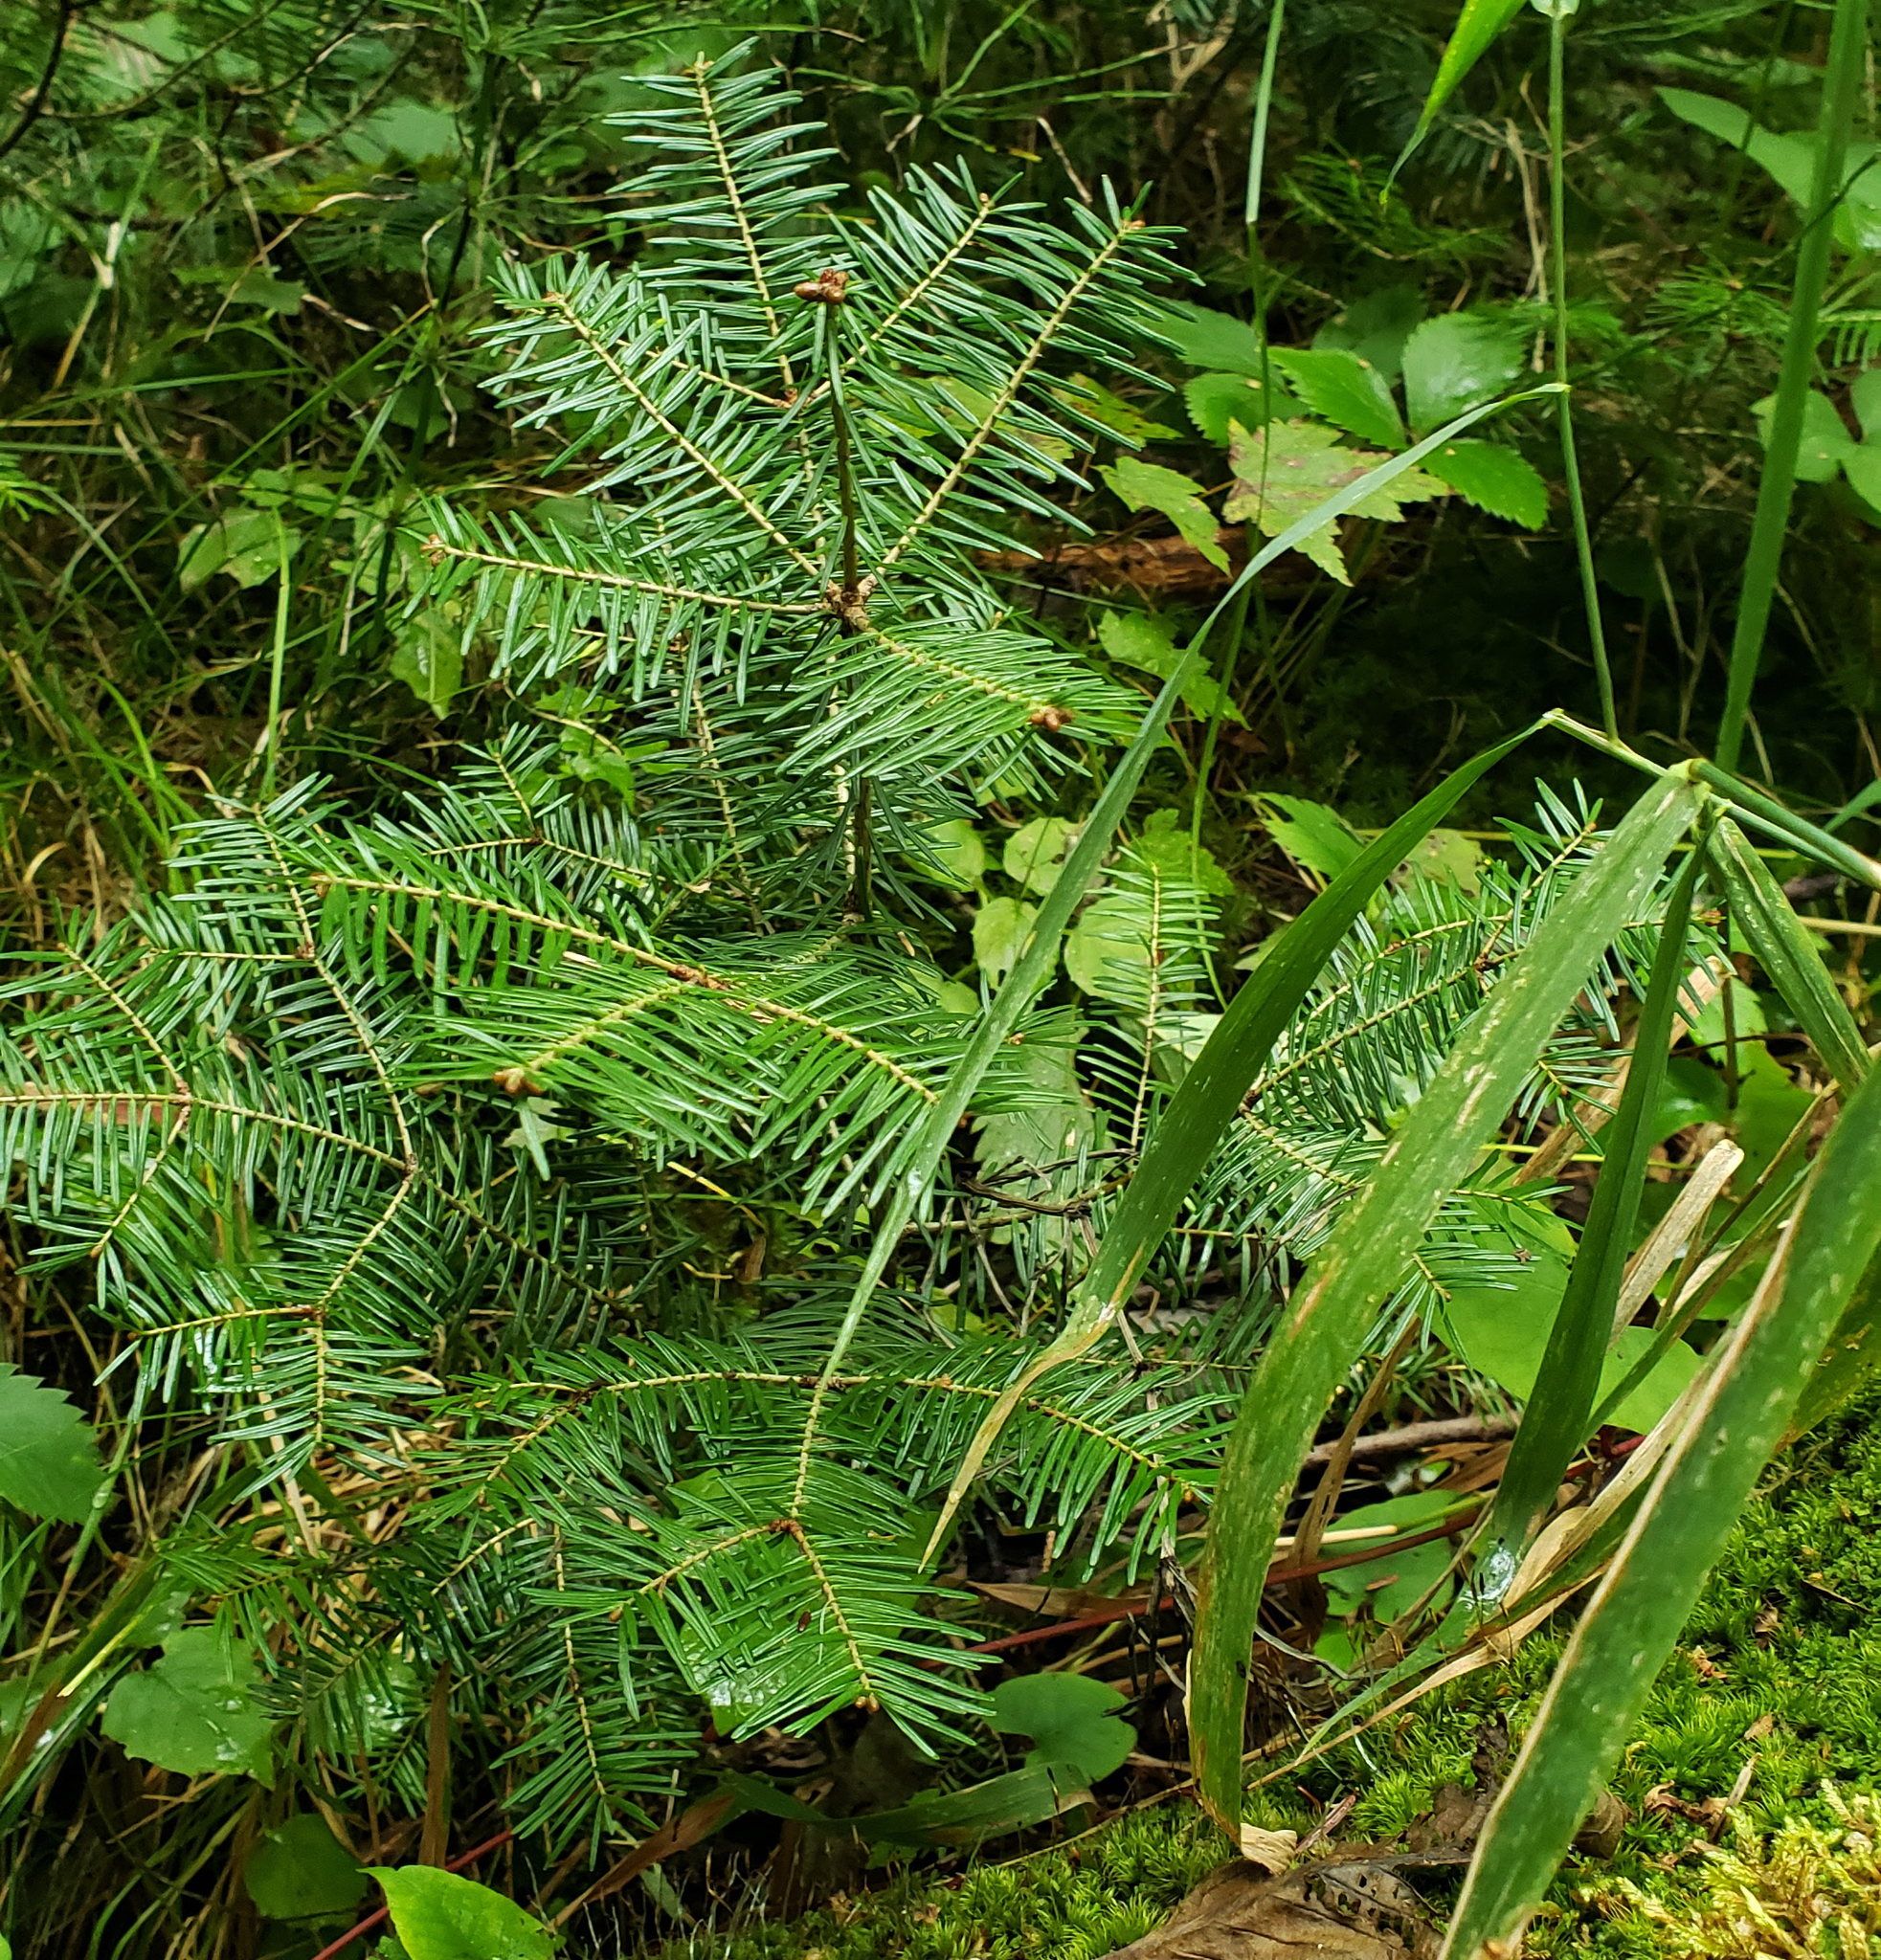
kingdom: Plantae
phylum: Tracheophyta
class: Pinopsida
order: Pinales
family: Pinaceae
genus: Abies
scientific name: Abies balsamea
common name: Balsam fir
